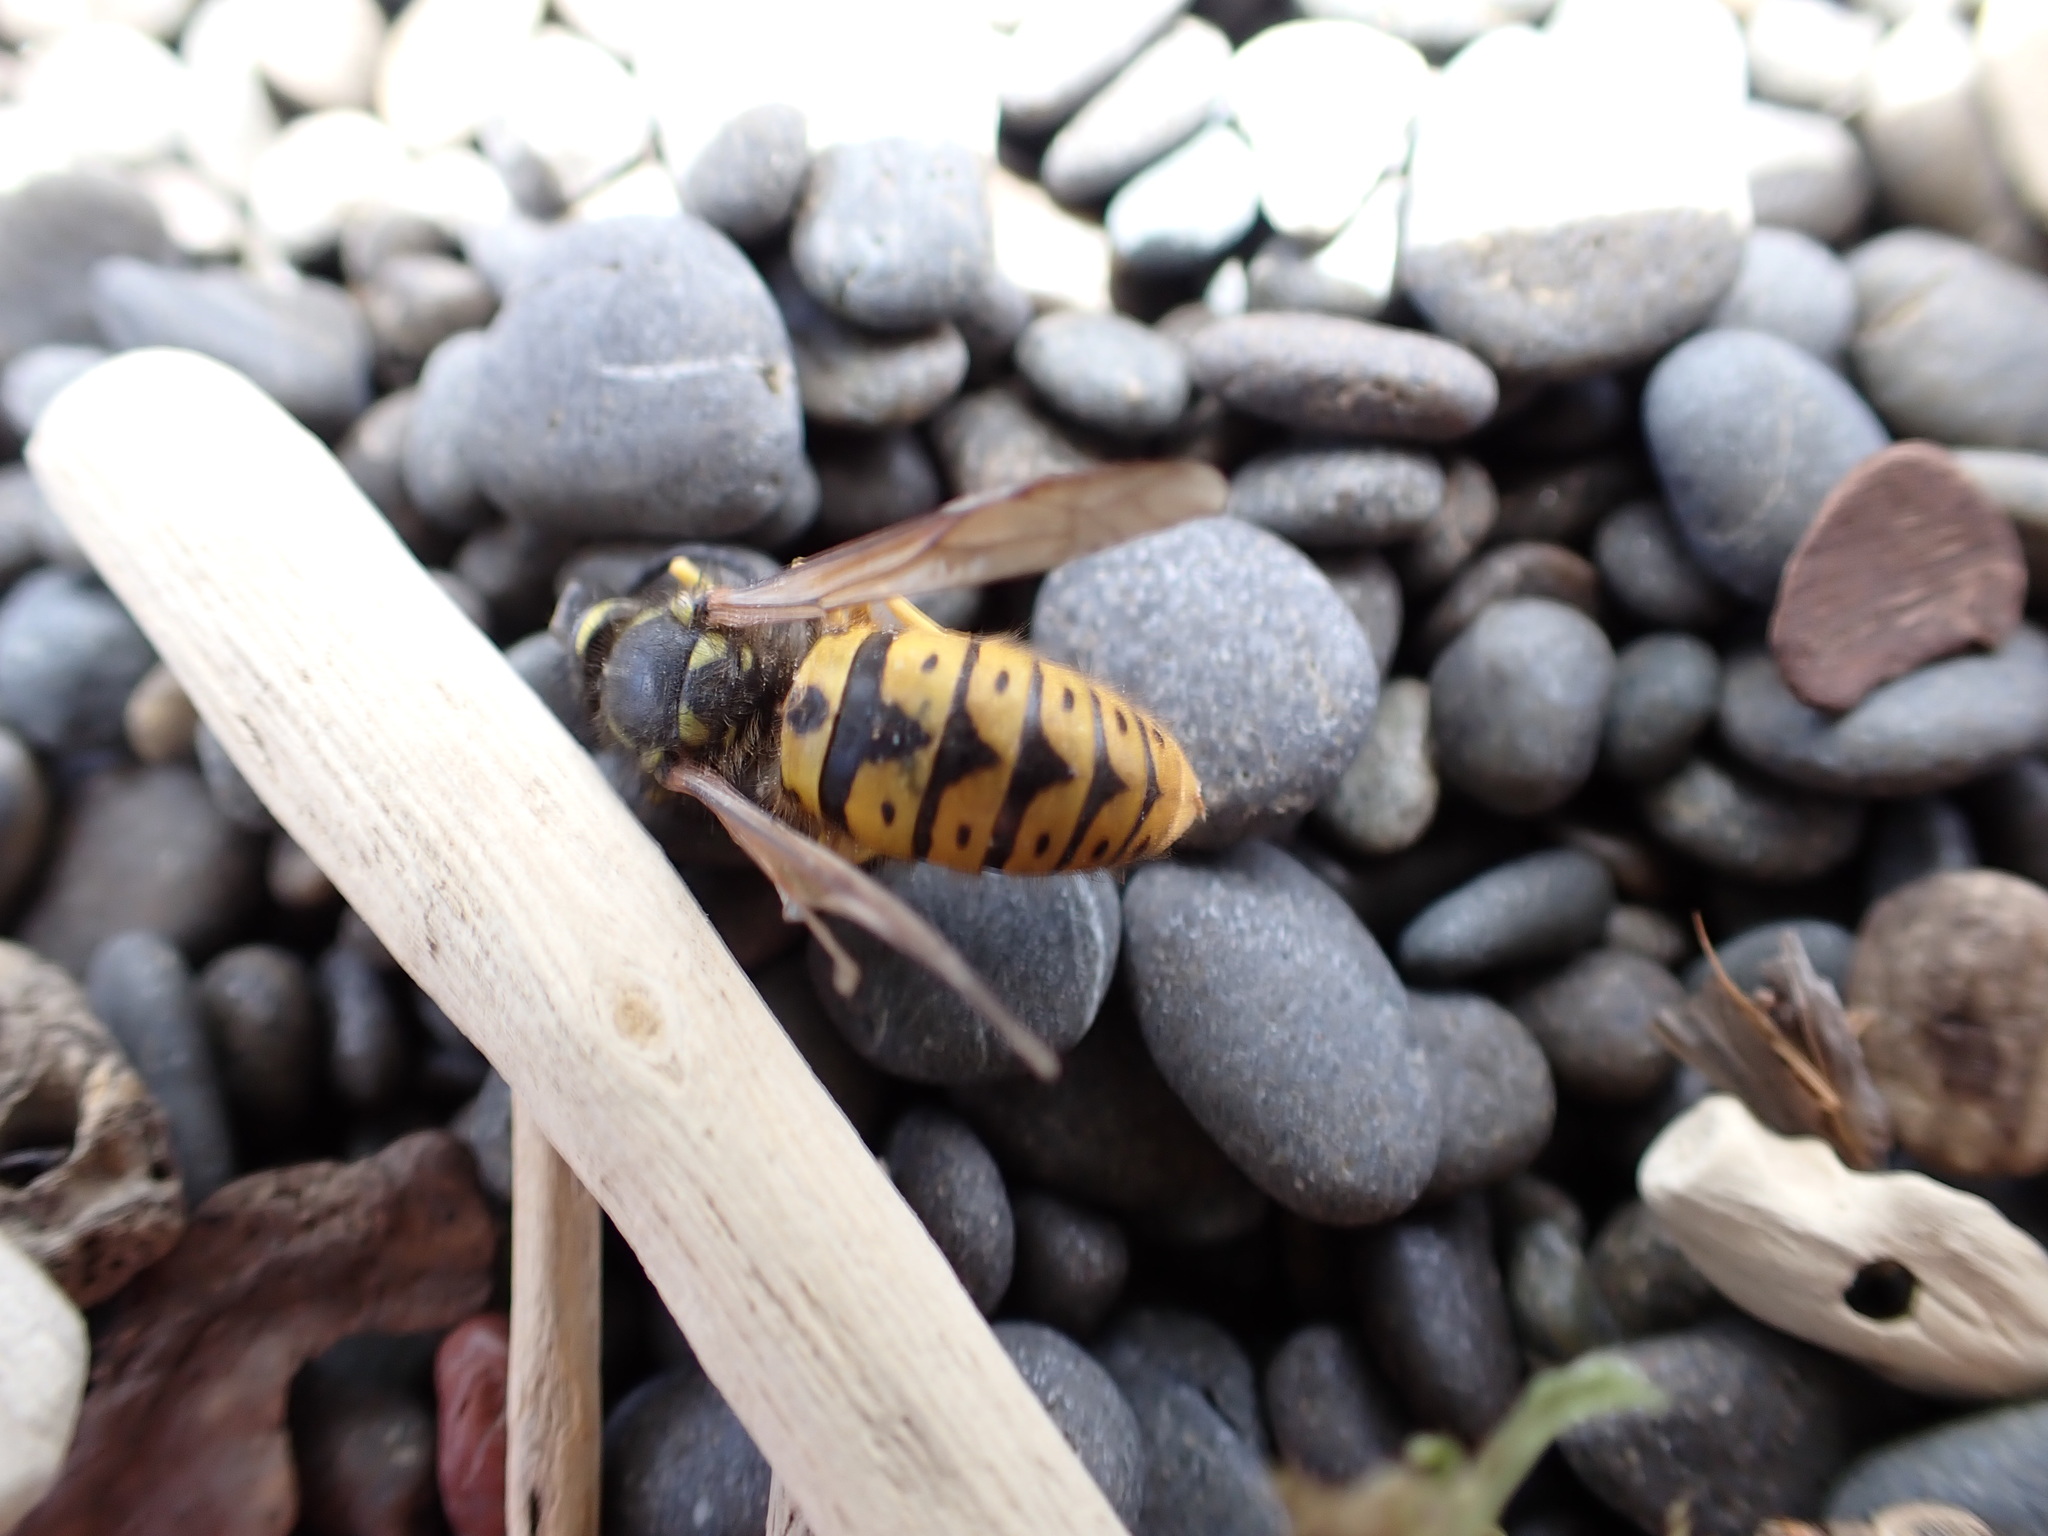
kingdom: Animalia
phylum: Arthropoda
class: Insecta
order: Hymenoptera
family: Vespidae
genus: Vespula
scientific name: Vespula germanica
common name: German wasp
